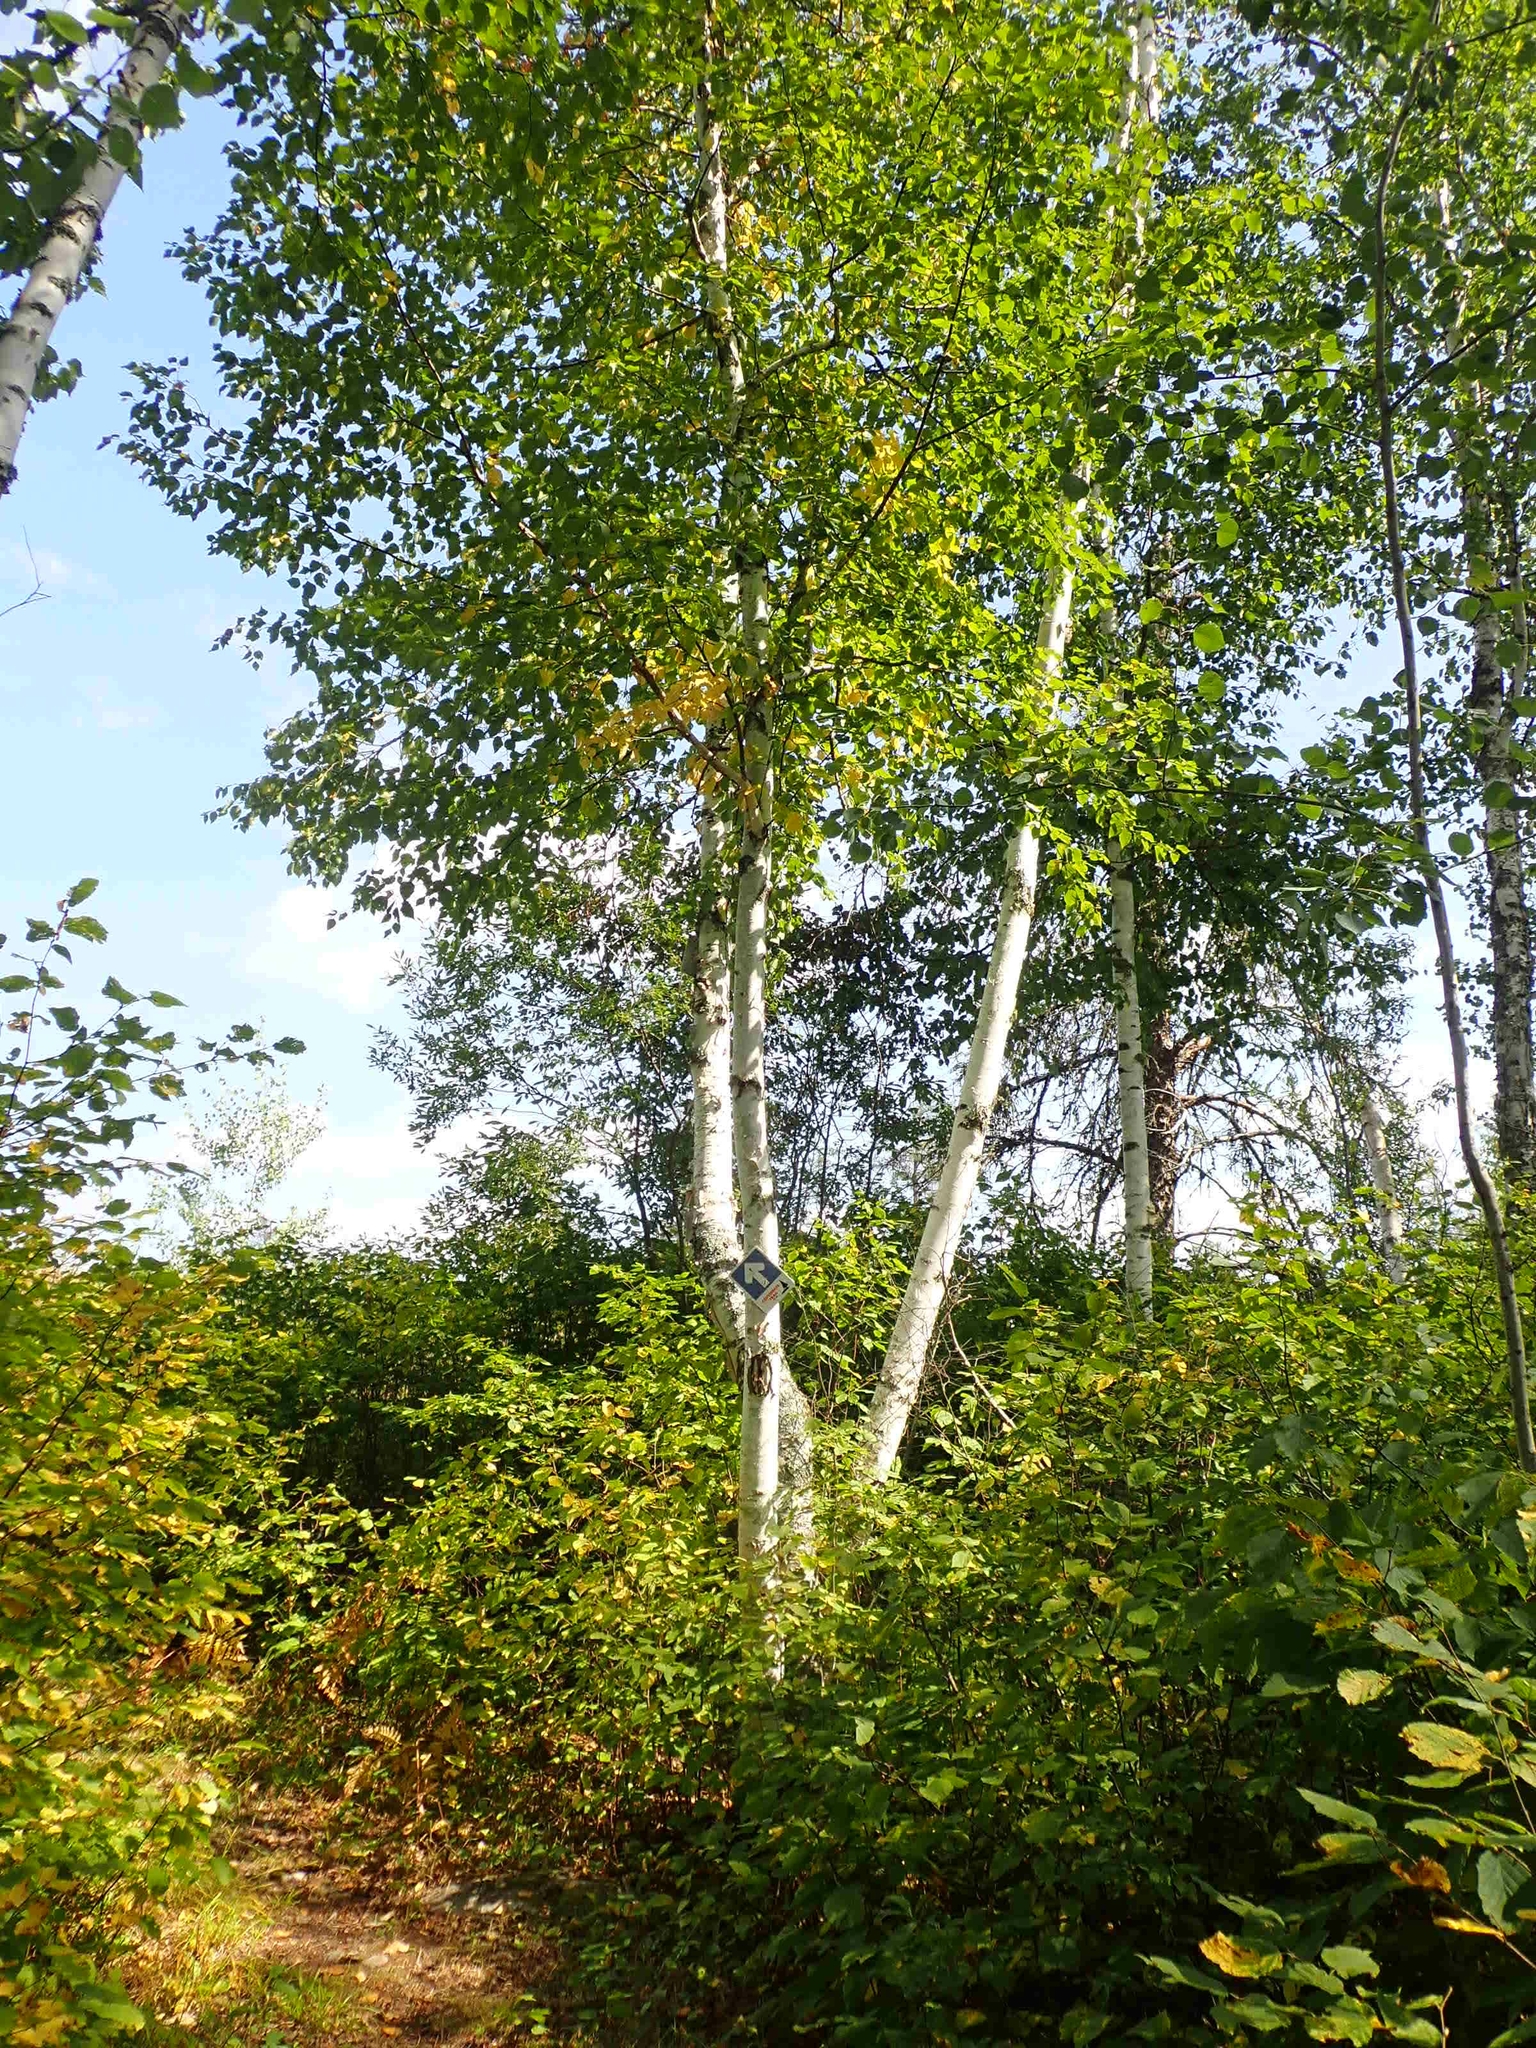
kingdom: Plantae
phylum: Tracheophyta
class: Magnoliopsida
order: Fagales
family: Betulaceae
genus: Betula
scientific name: Betula papyrifera
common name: Paper birch
